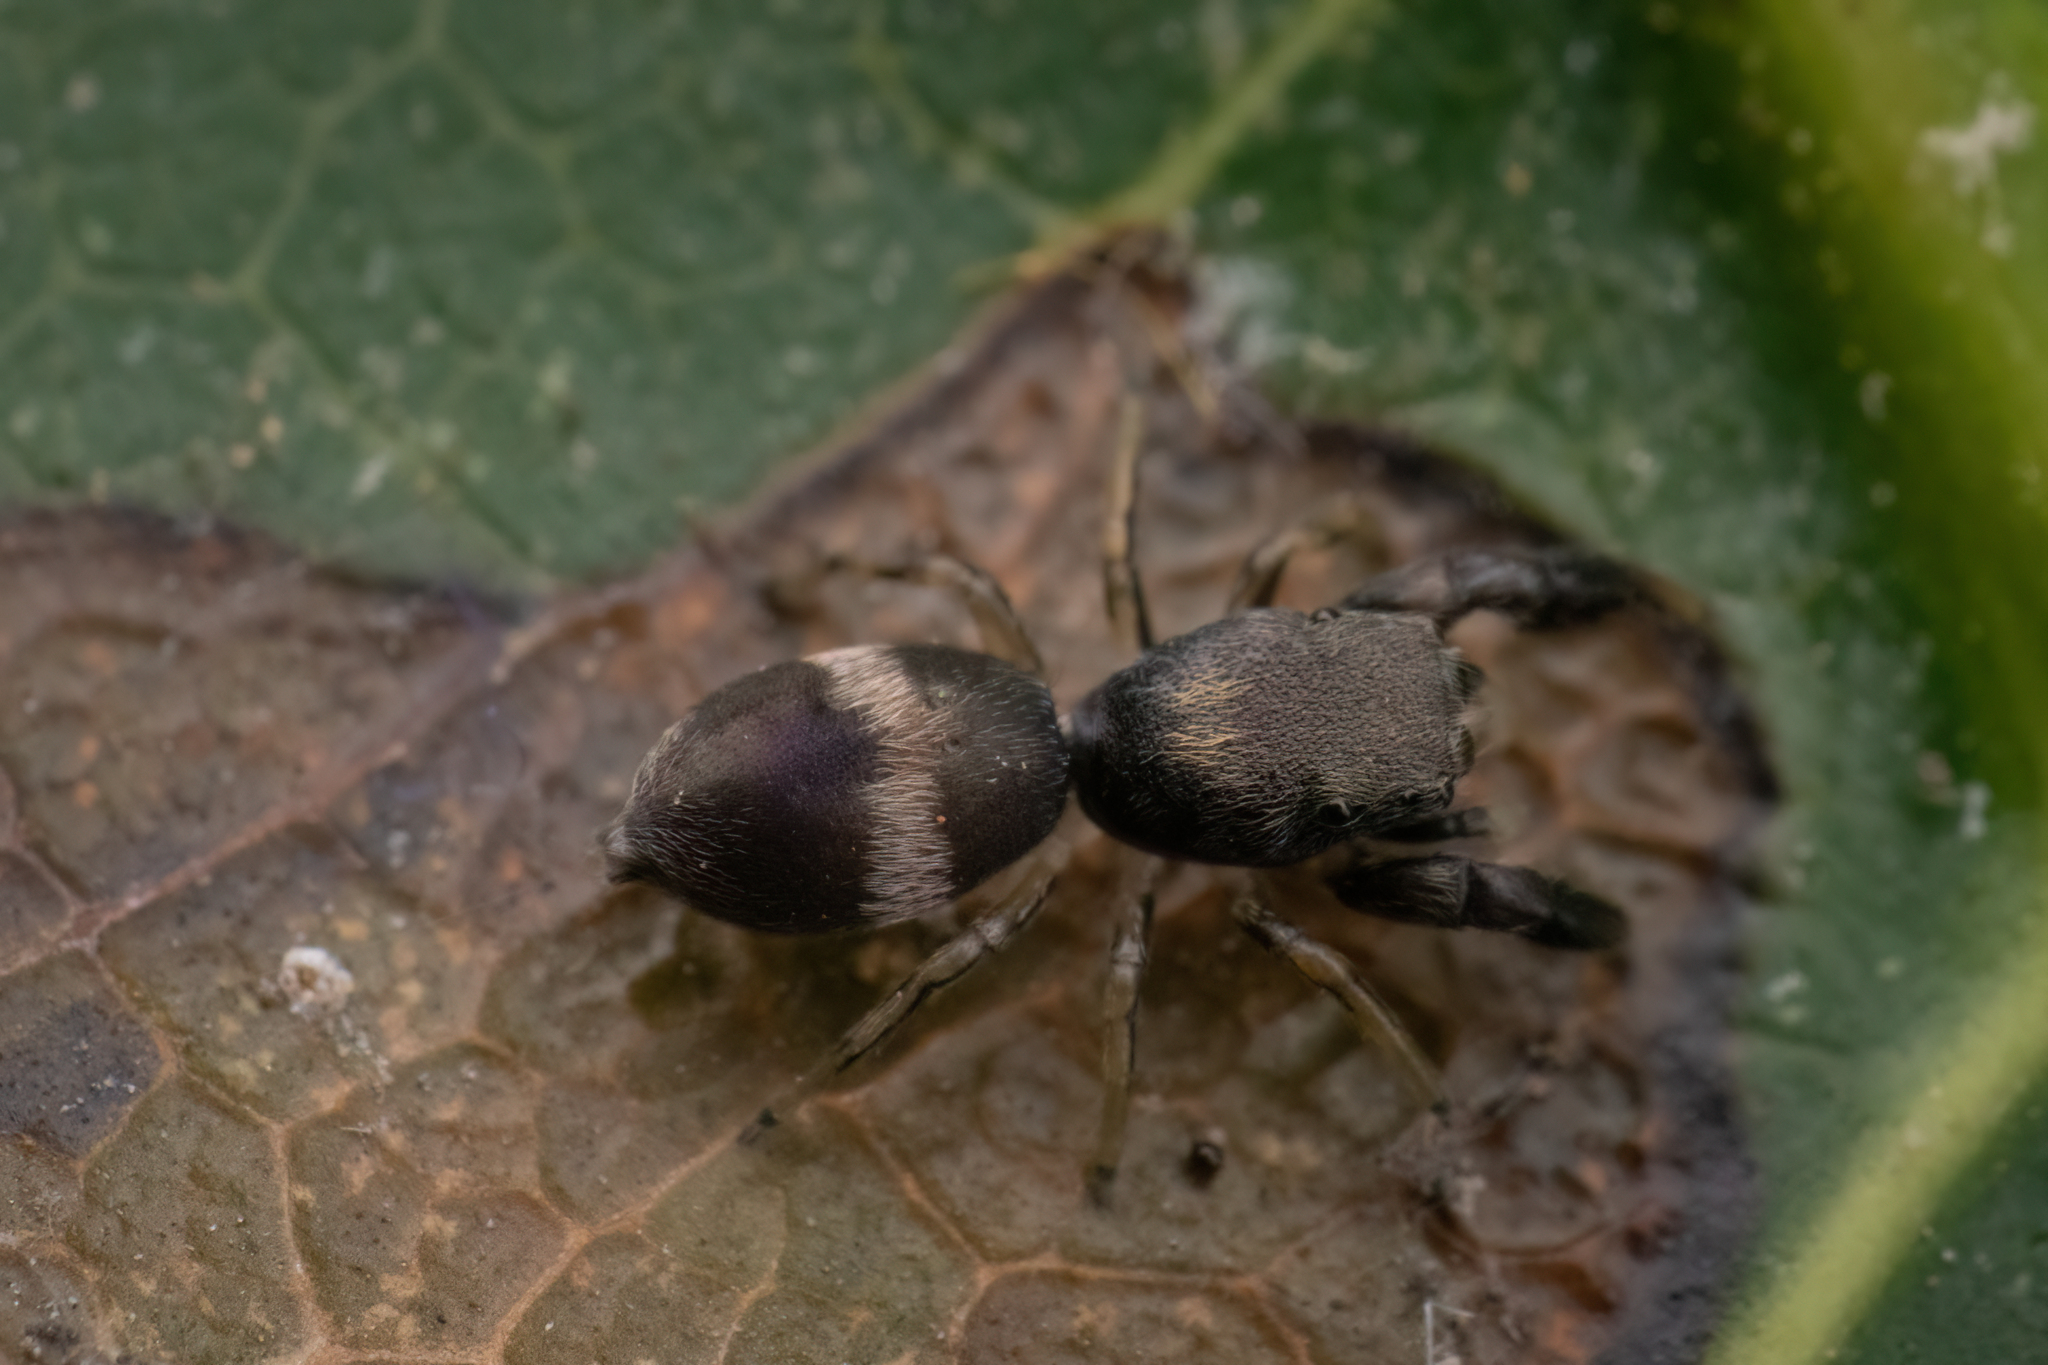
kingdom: Animalia
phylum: Arthropoda
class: Arachnida
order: Araneae
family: Salticidae
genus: Marengo
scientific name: Marengo sachintendulkar
